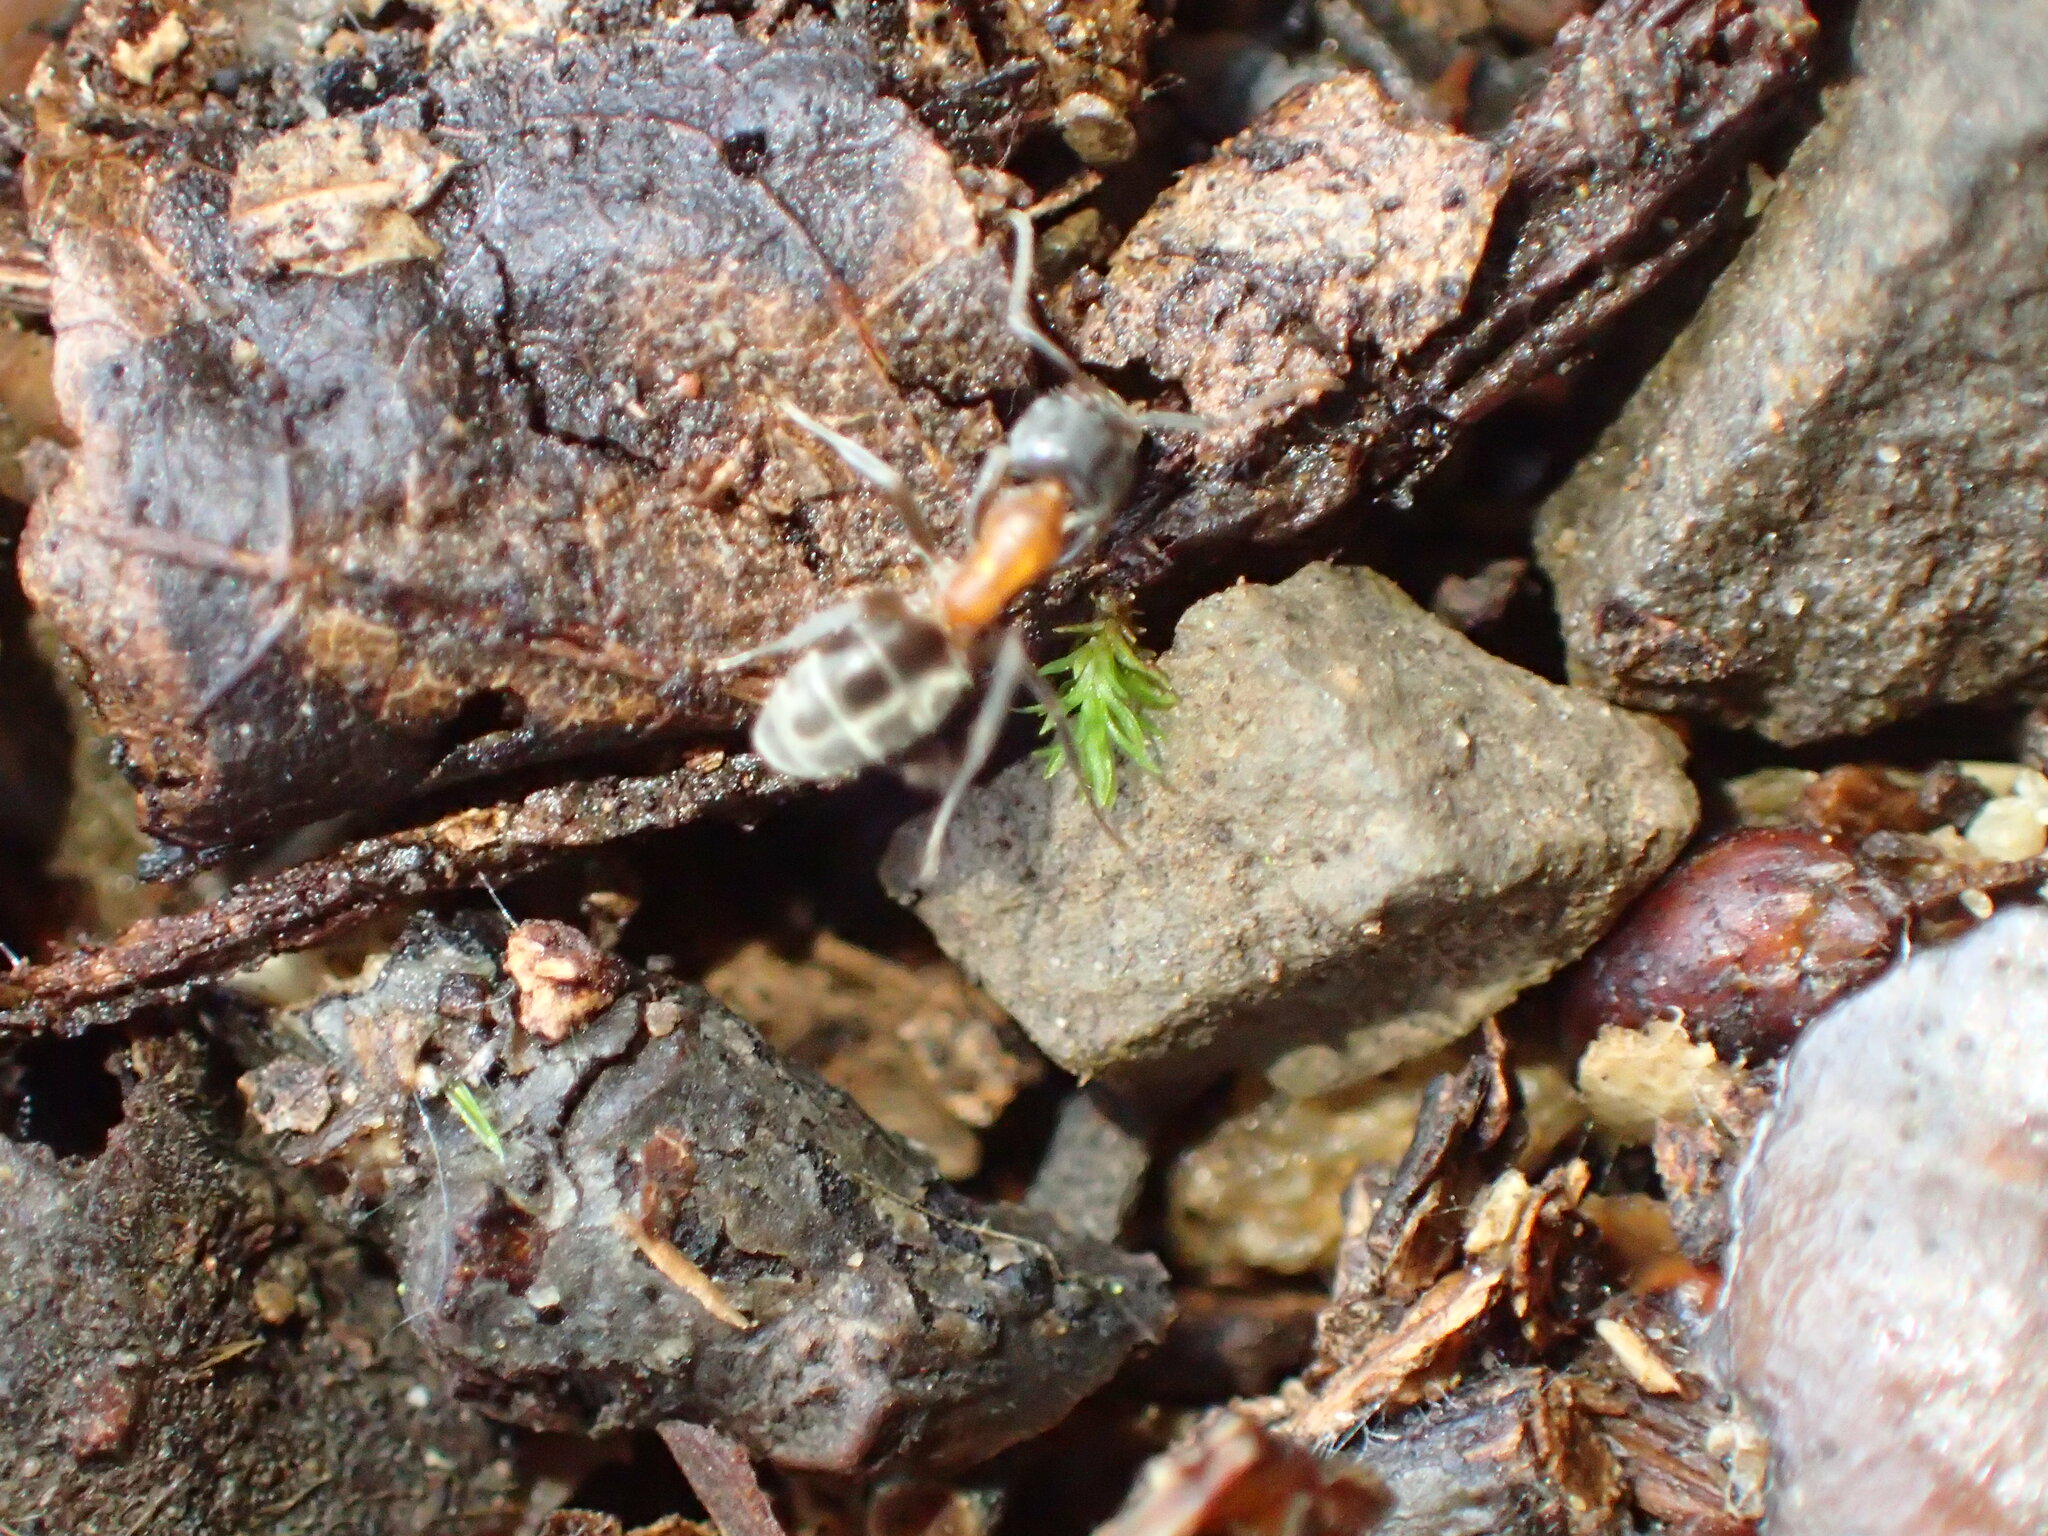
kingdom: Animalia
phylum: Arthropoda
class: Insecta
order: Hymenoptera
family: Formicidae
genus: Liometopum
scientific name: Liometopum occidentale
